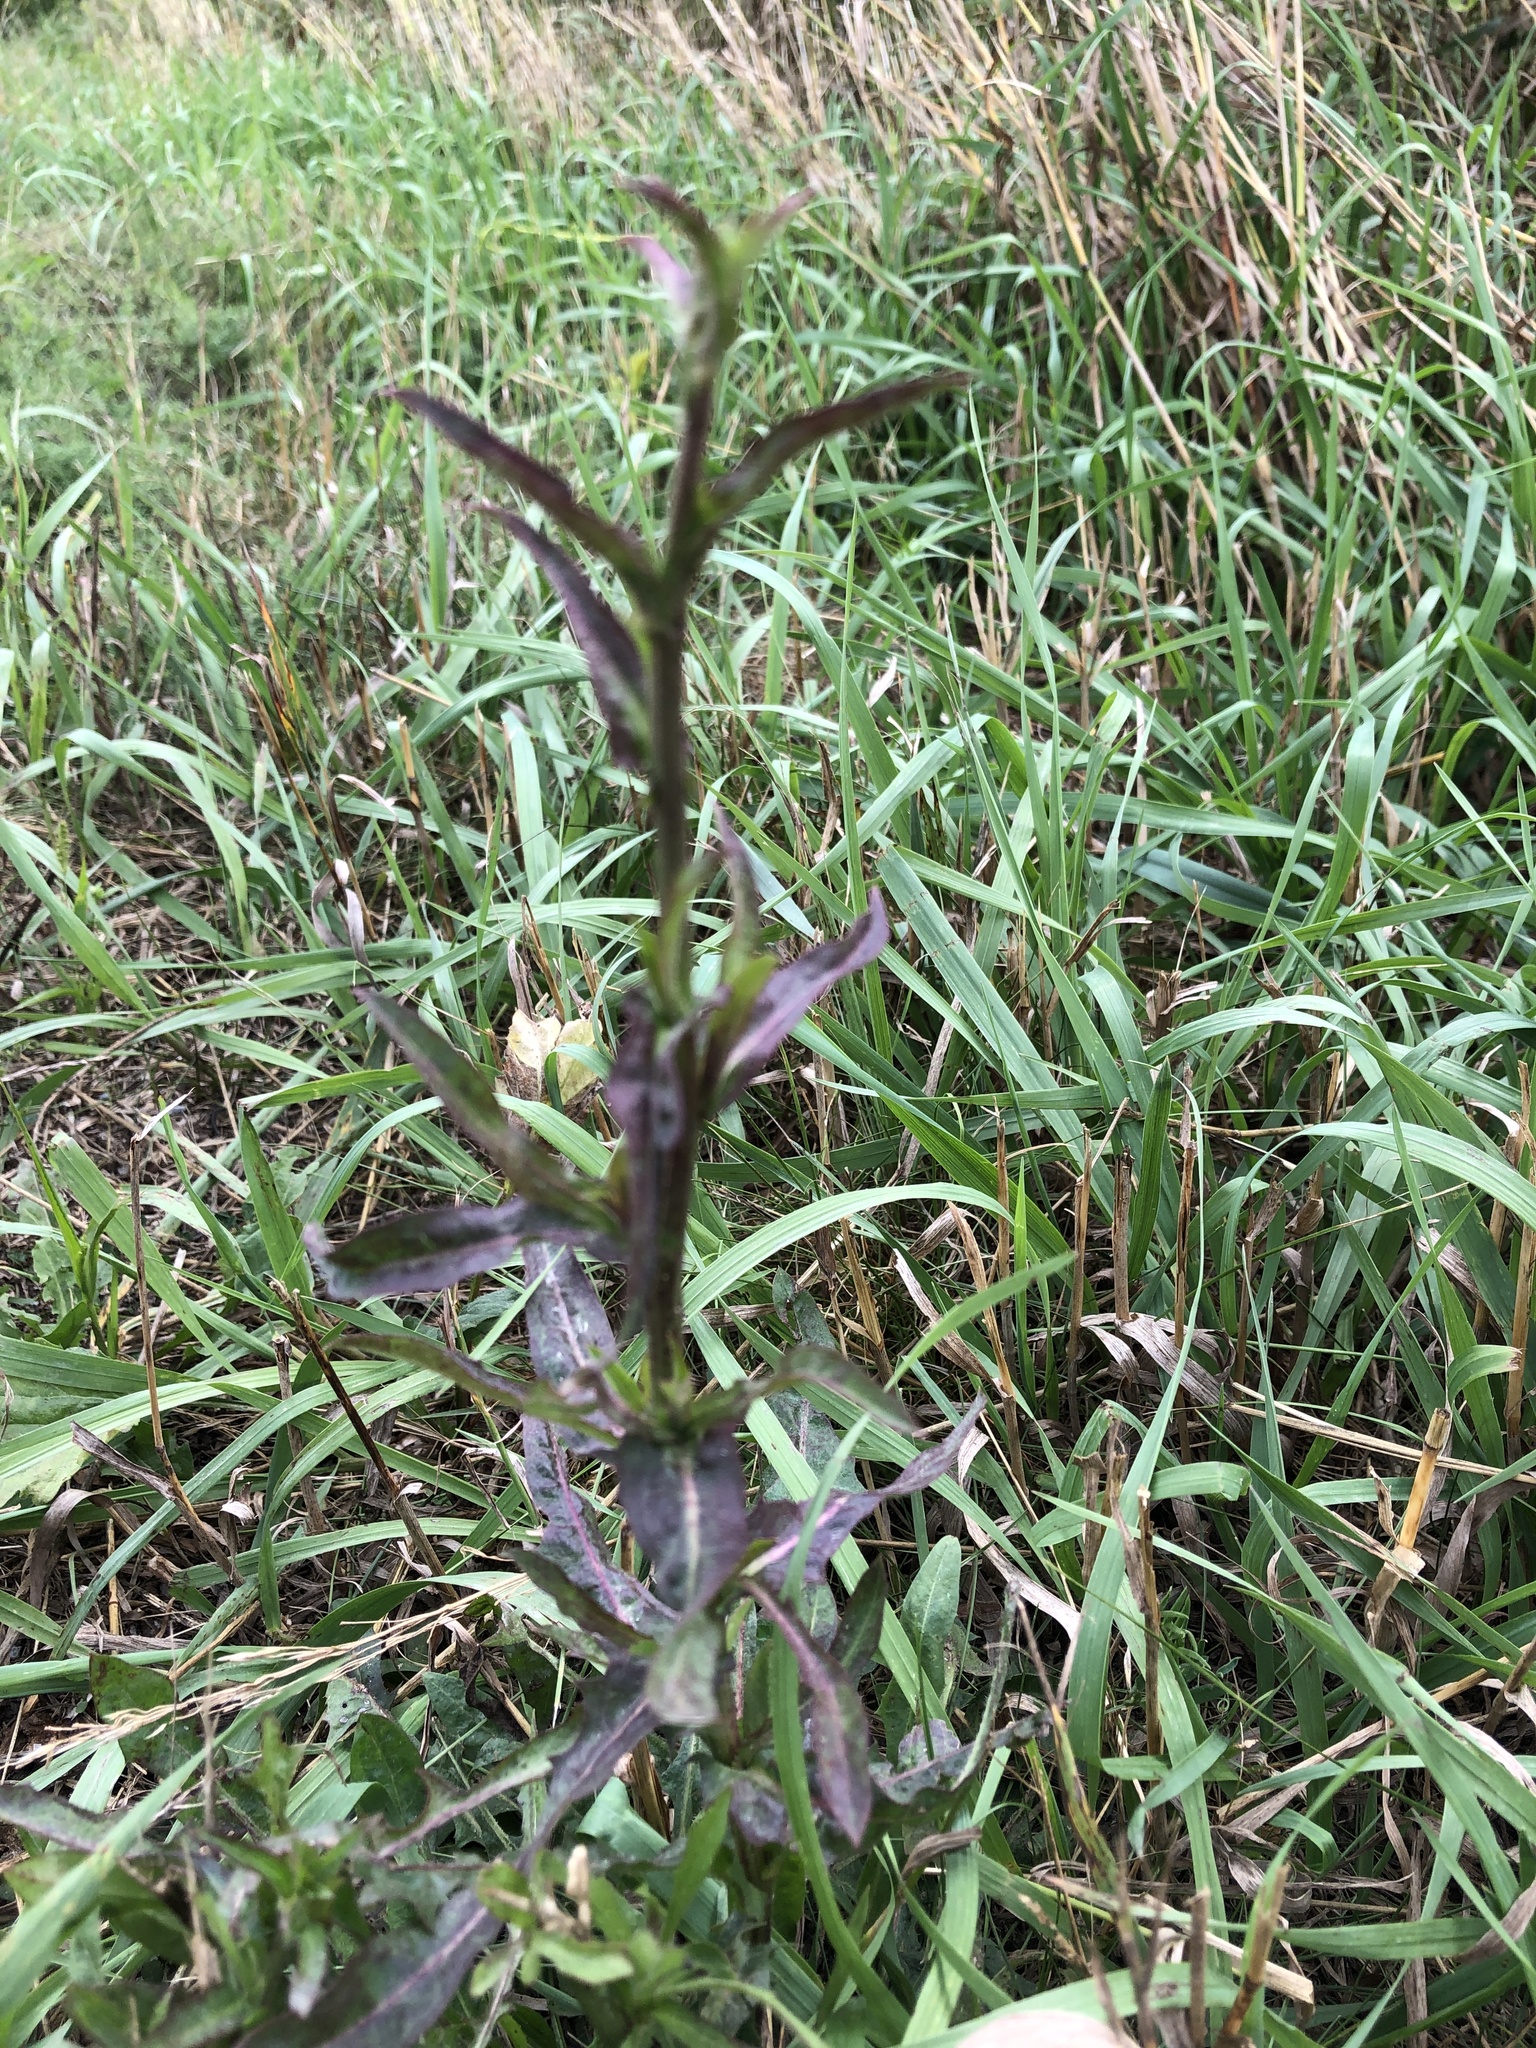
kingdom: Plantae
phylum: Tracheophyta
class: Magnoliopsida
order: Asterales
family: Asteraceae
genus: Cichorium
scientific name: Cichorium intybus
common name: Chicory
